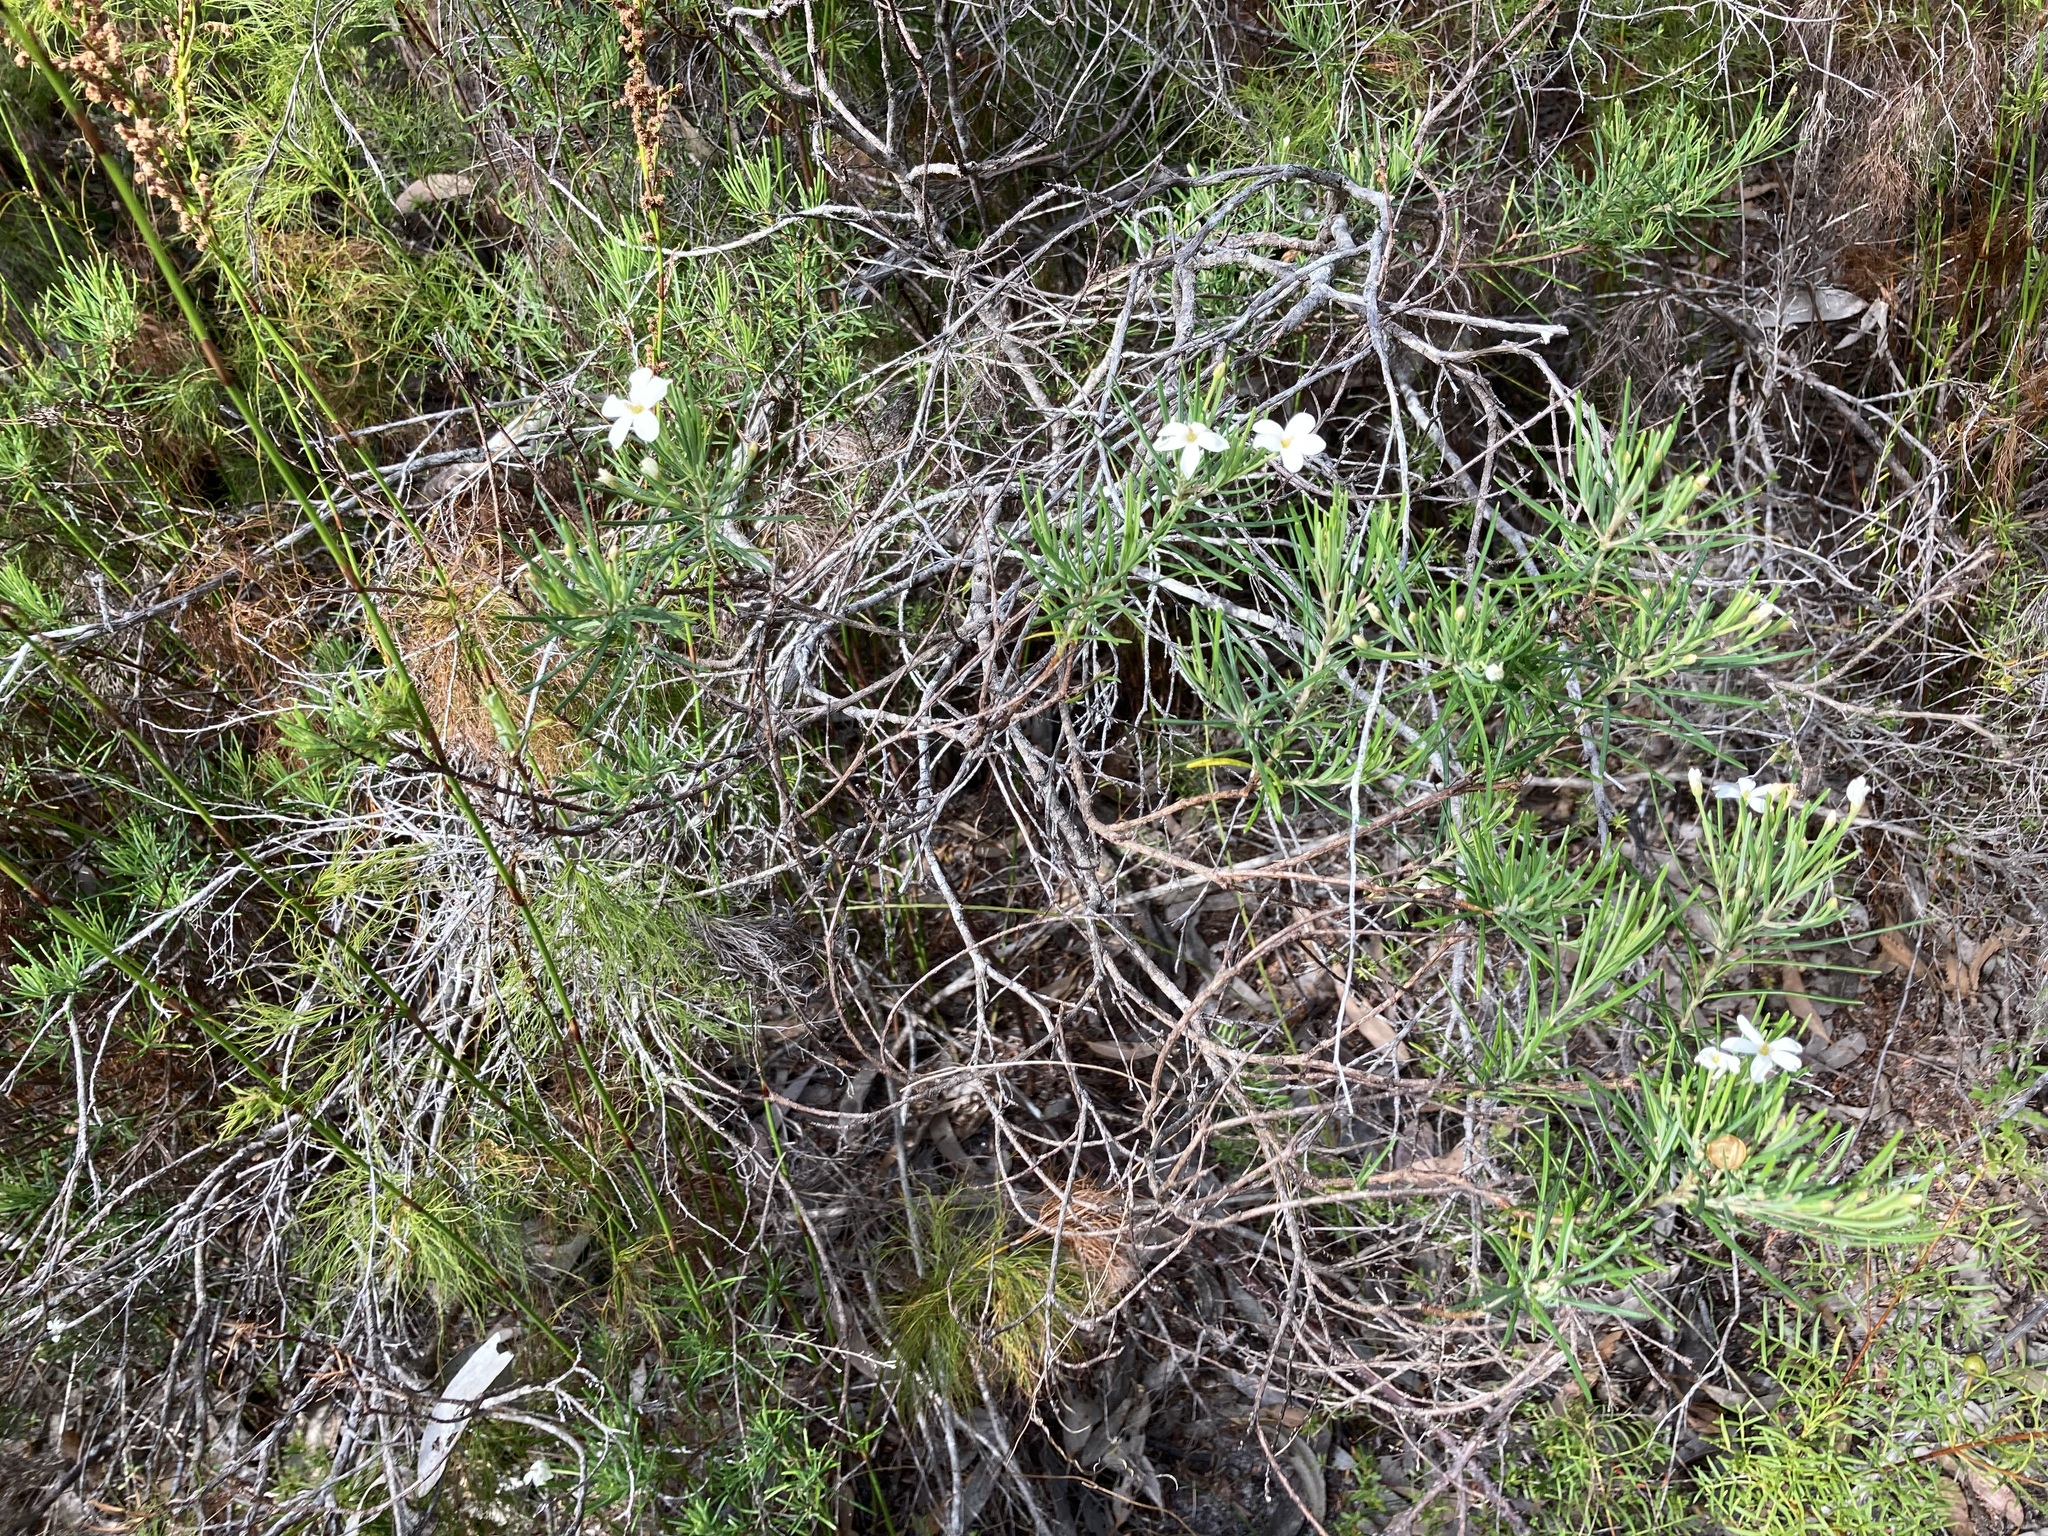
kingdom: Plantae
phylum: Tracheophyta
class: Magnoliopsida
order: Malpighiales
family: Euphorbiaceae
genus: Ricinocarpos
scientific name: Ricinocarpos pinifolius
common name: Weddingbush
